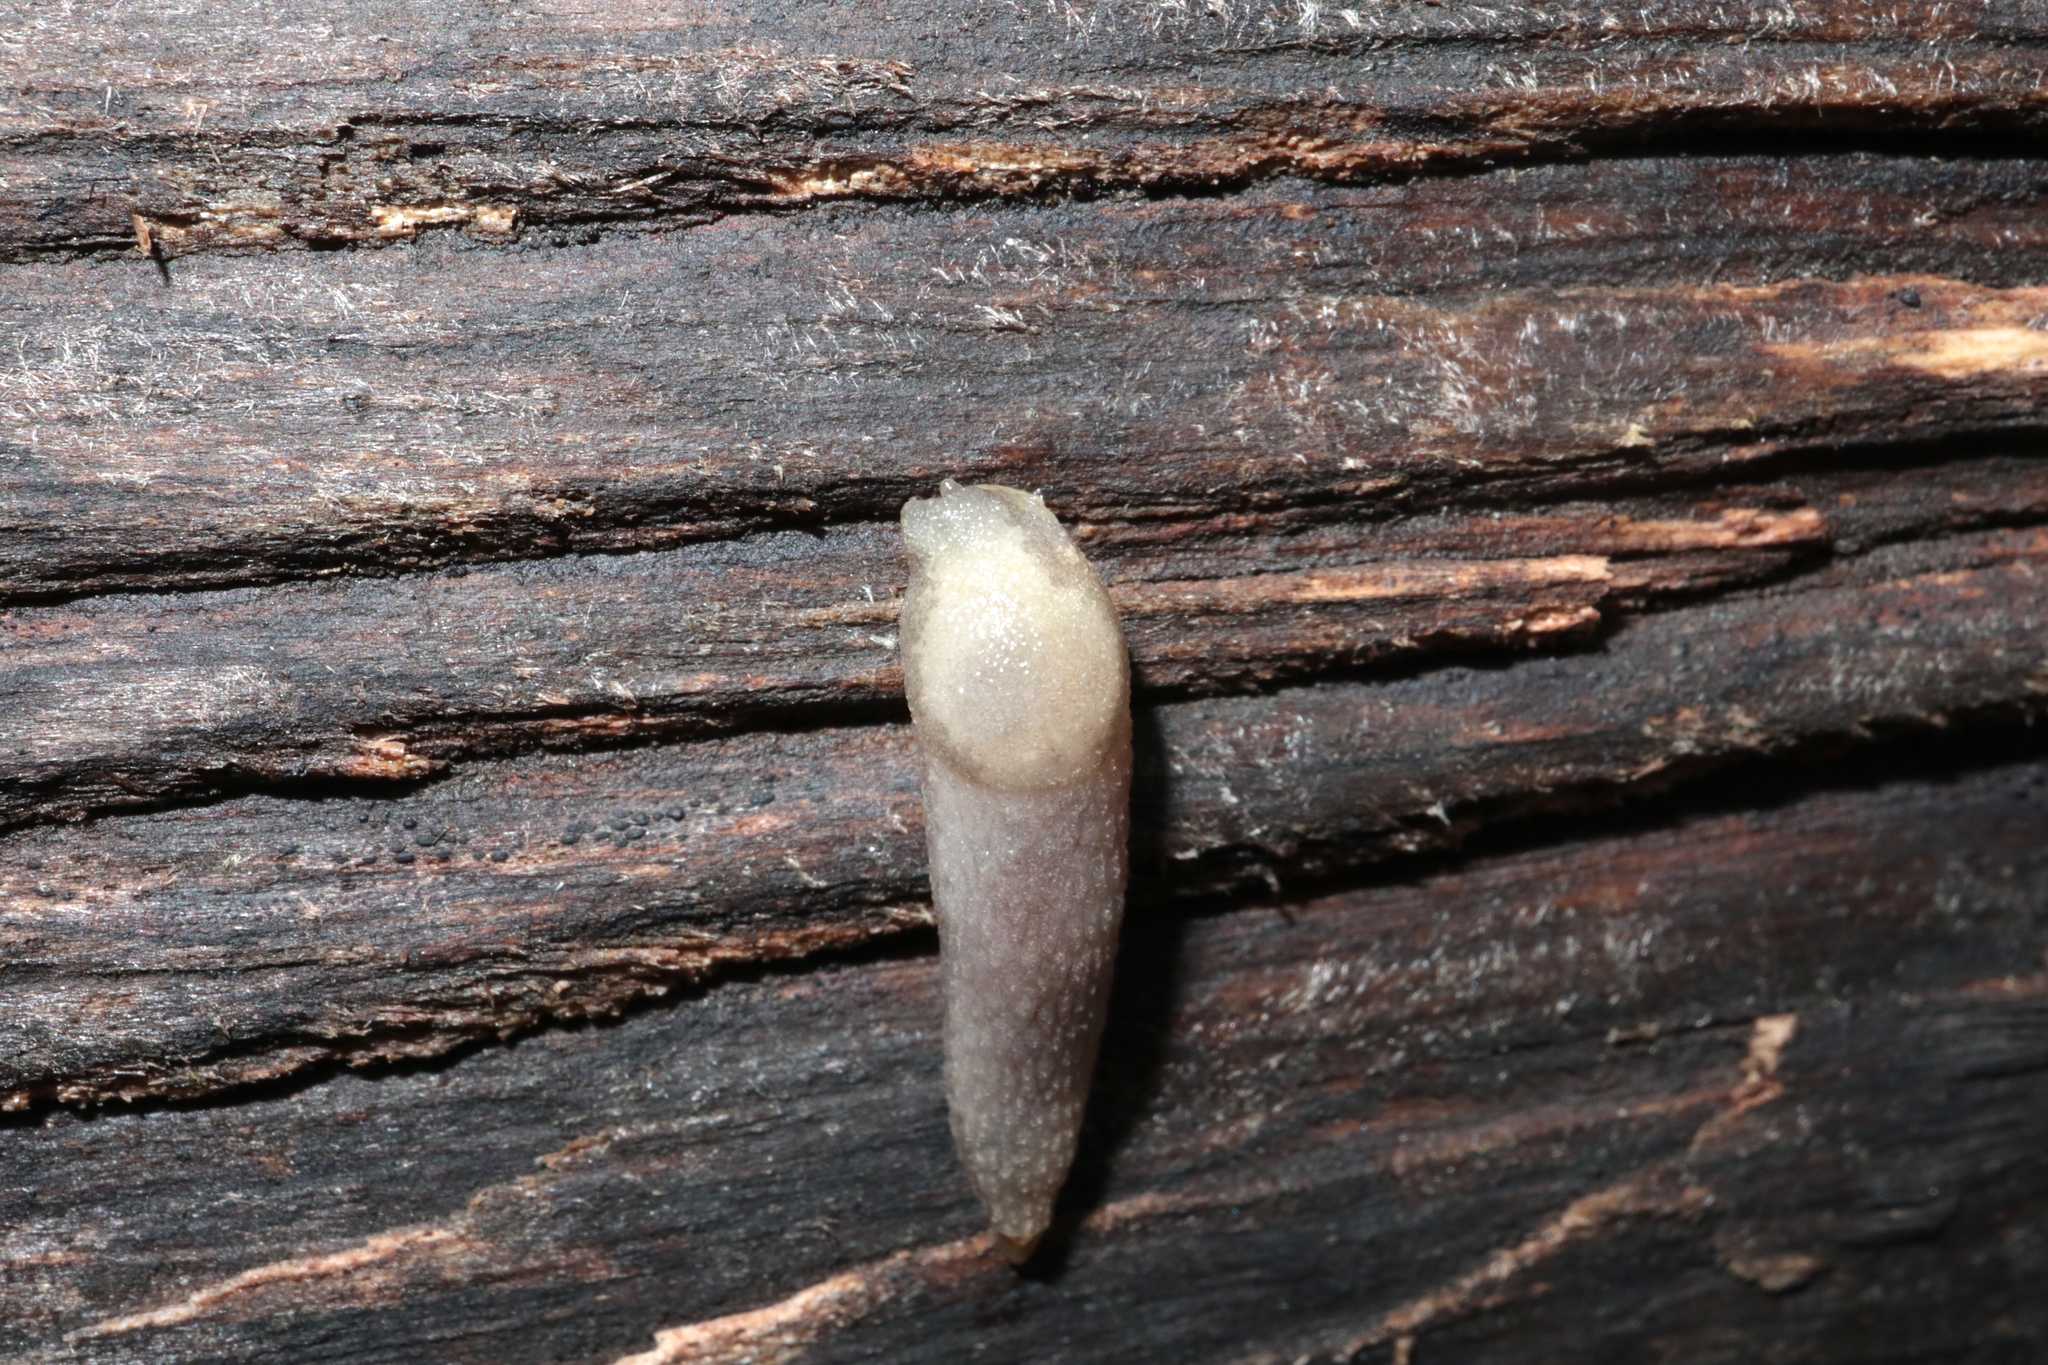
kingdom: Animalia
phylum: Mollusca
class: Gastropoda
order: Stylommatophora
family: Arionidae
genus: Arion
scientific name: Arion intermedius
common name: Hedgehog slug
